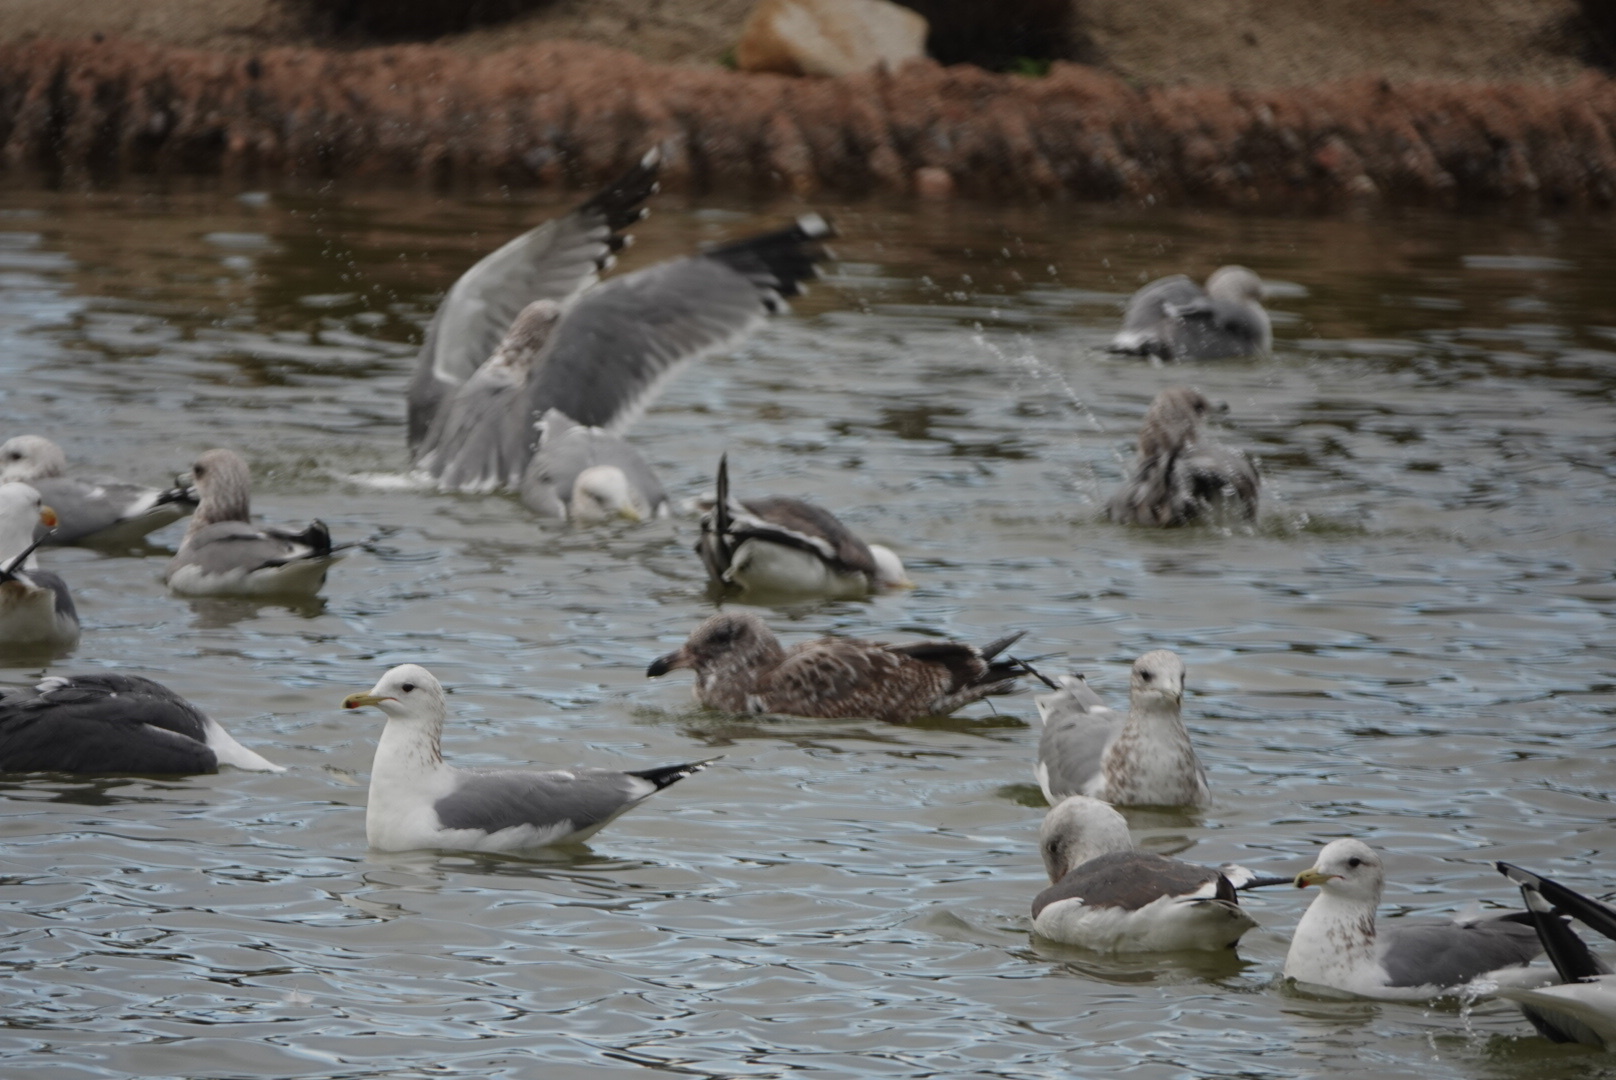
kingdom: Animalia
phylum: Chordata
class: Aves
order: Charadriiformes
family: Laridae
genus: Larus
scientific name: Larus californicus
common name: California gull
